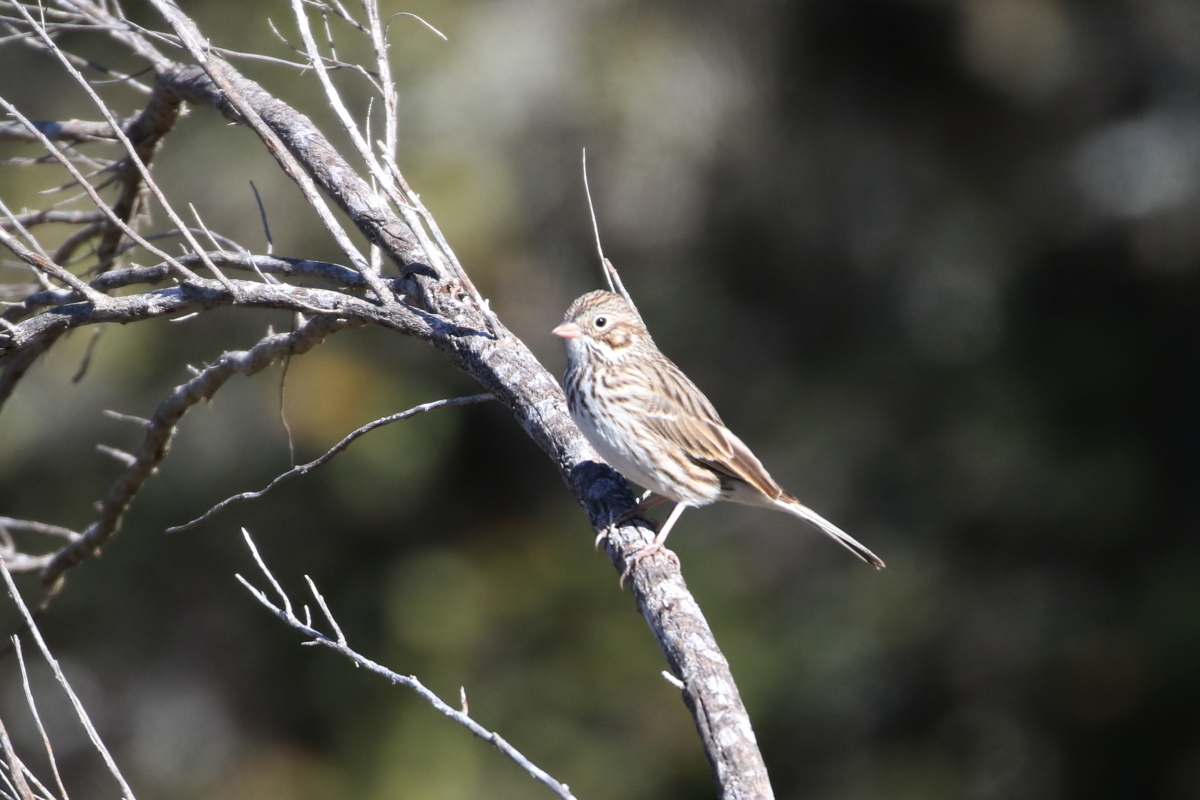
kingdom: Animalia
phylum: Chordata
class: Aves
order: Passeriformes
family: Passerellidae
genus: Pooecetes
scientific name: Pooecetes gramineus
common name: Vesper sparrow
